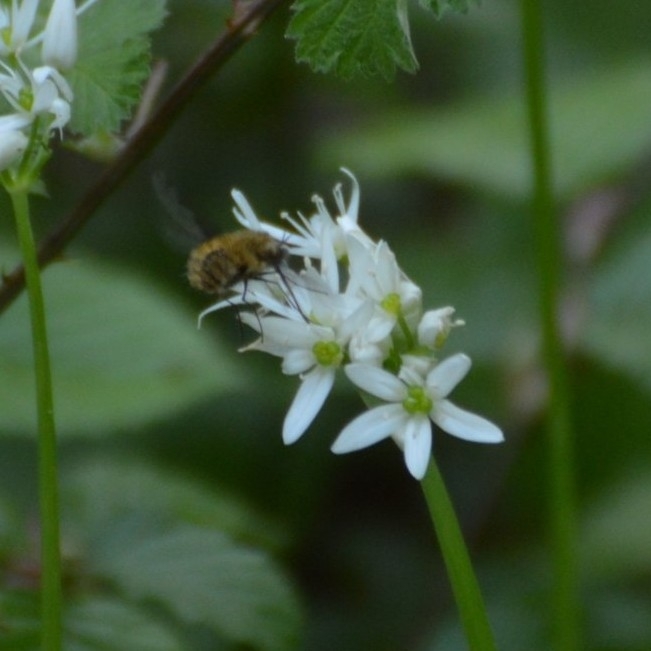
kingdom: Animalia
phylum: Arthropoda
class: Insecta
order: Diptera
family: Bombyliidae
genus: Bombylius
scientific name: Bombylius major
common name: Bee fly
